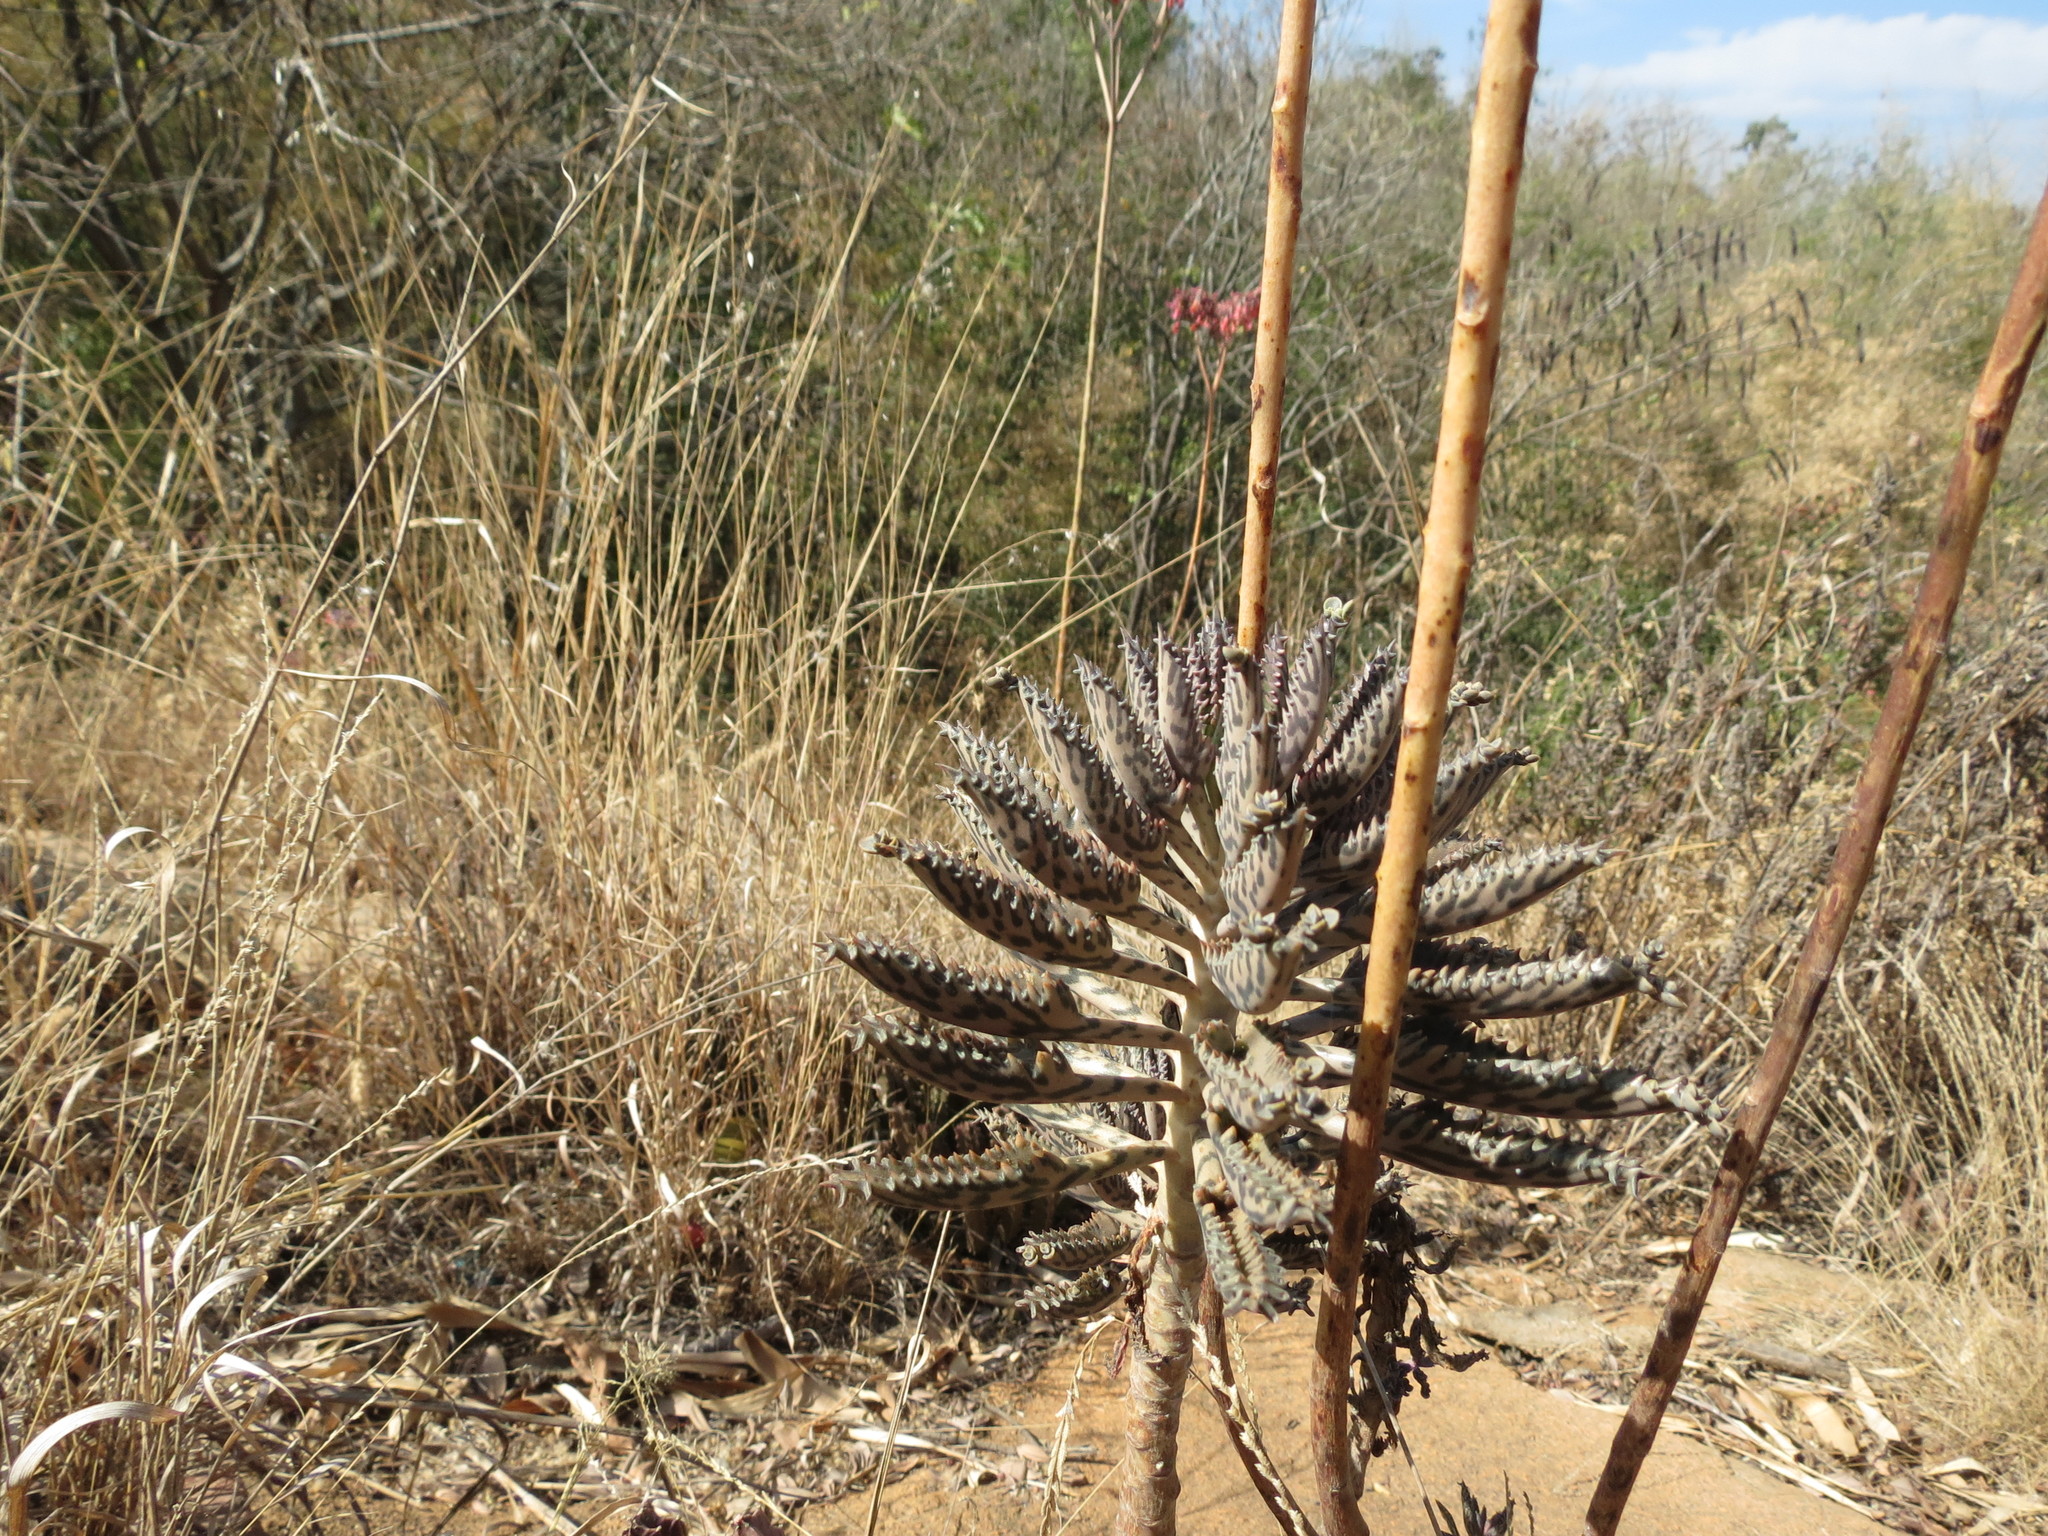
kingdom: Plantae
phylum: Tracheophyta
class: Magnoliopsida
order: Saxifragales
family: Crassulaceae
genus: Kalanchoe
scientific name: Kalanchoe houghtonii
